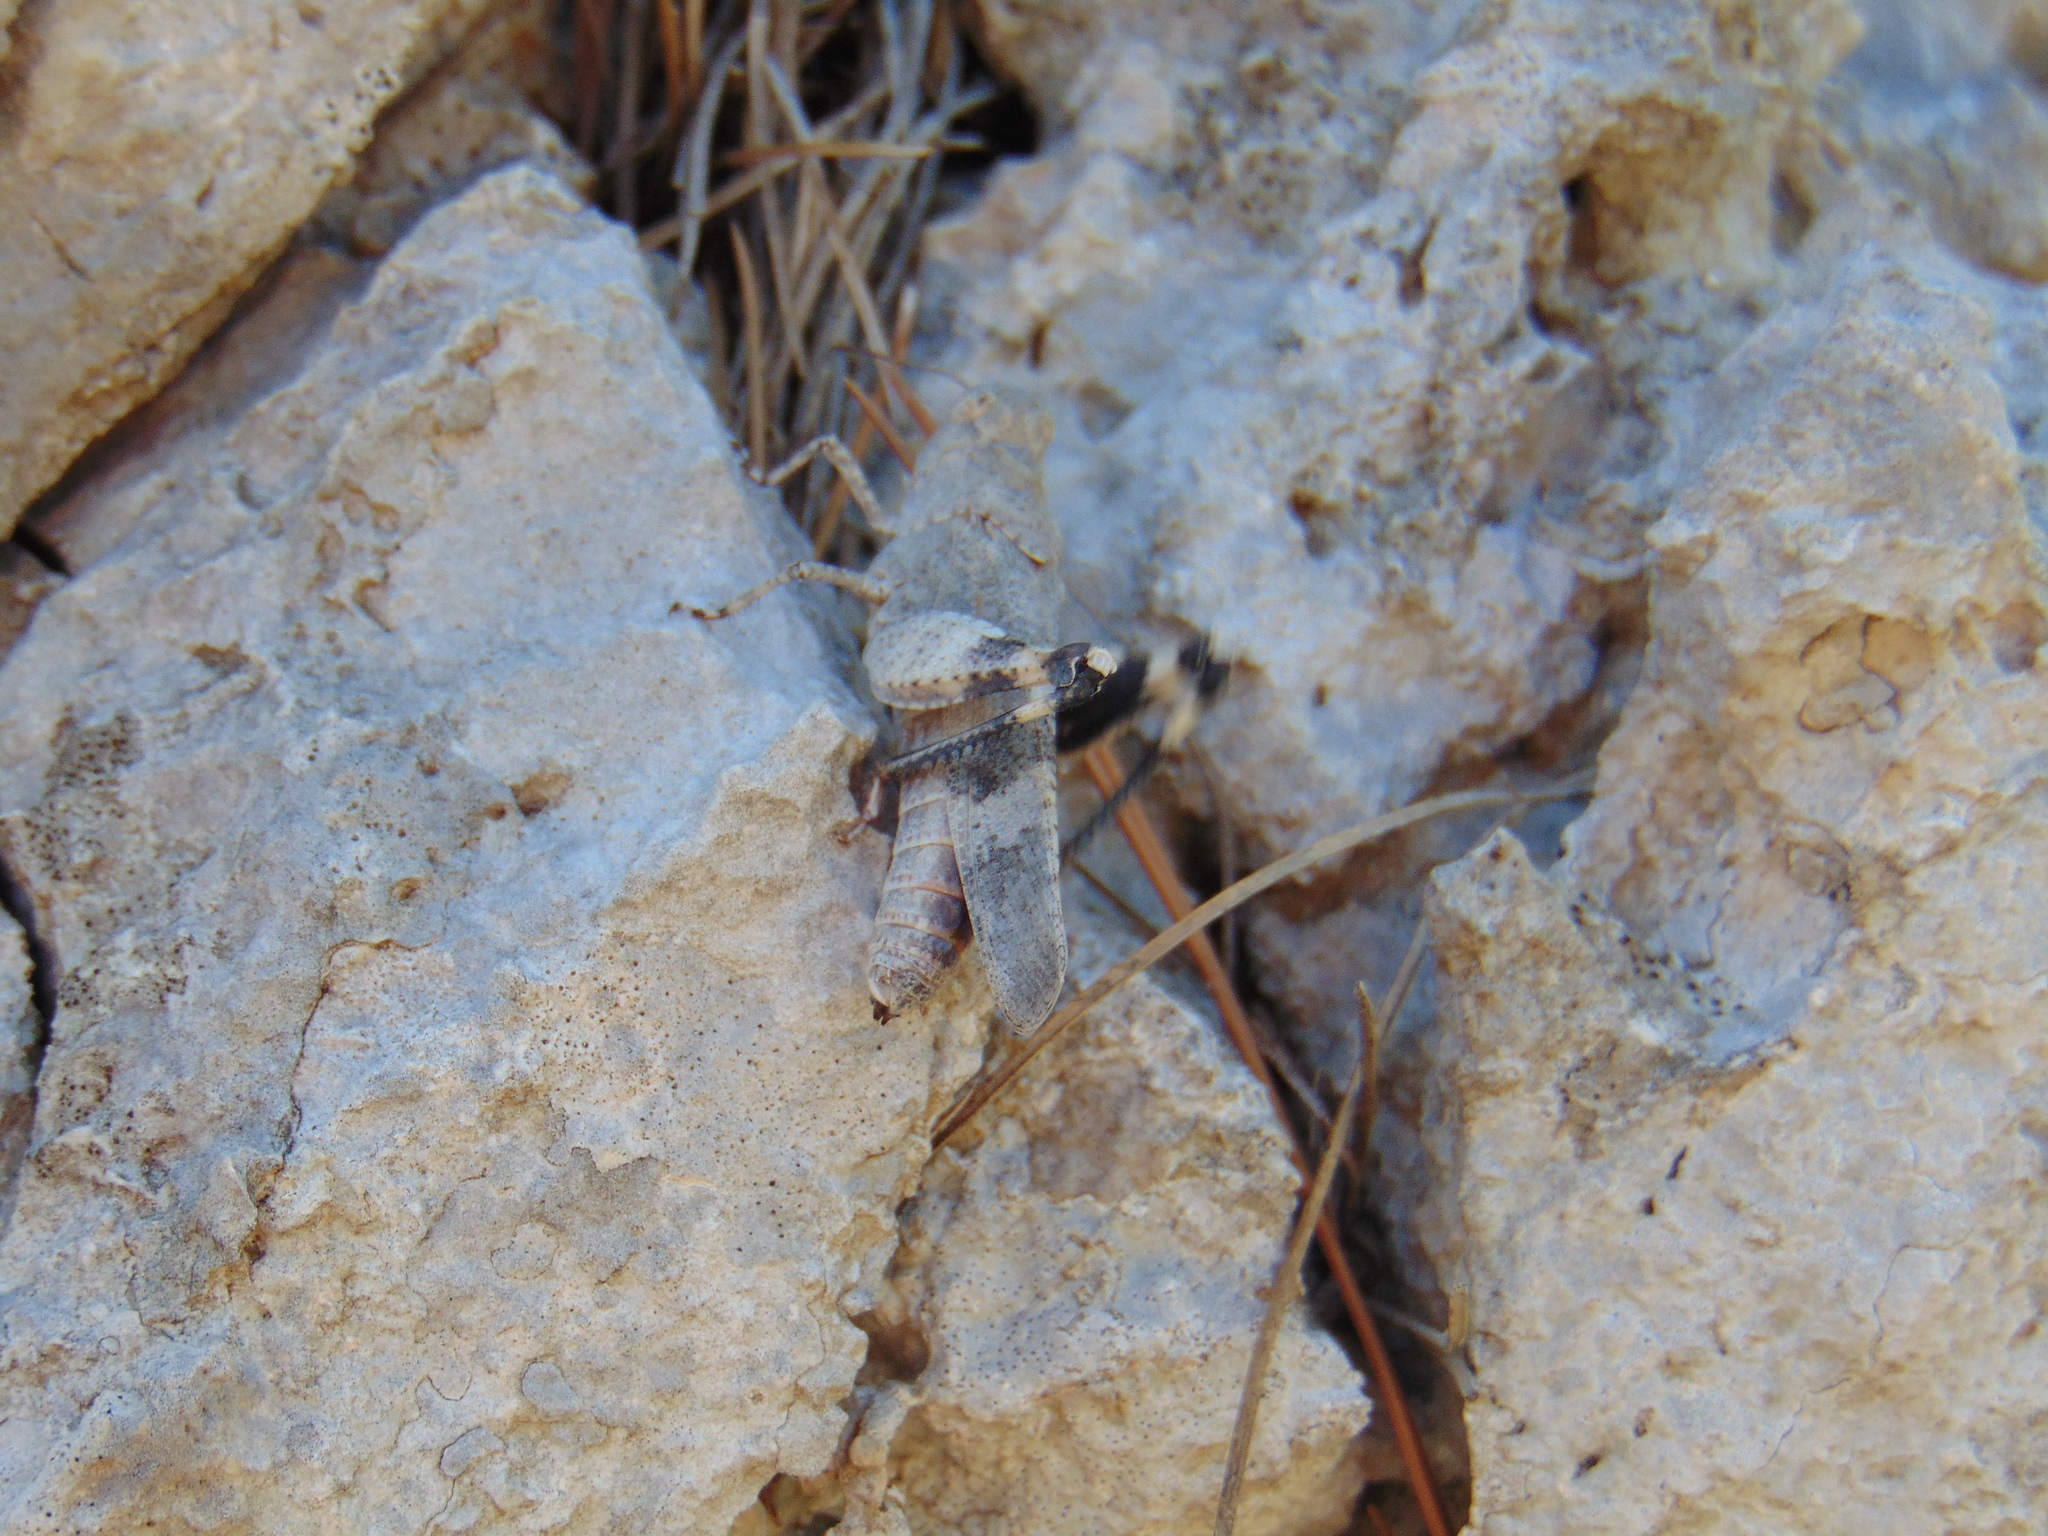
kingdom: Animalia
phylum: Arthropoda
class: Insecta
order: Orthoptera
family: Acrididae
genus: Oedipoda
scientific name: Oedipoda germanica
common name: Red band-winged grasshopper
